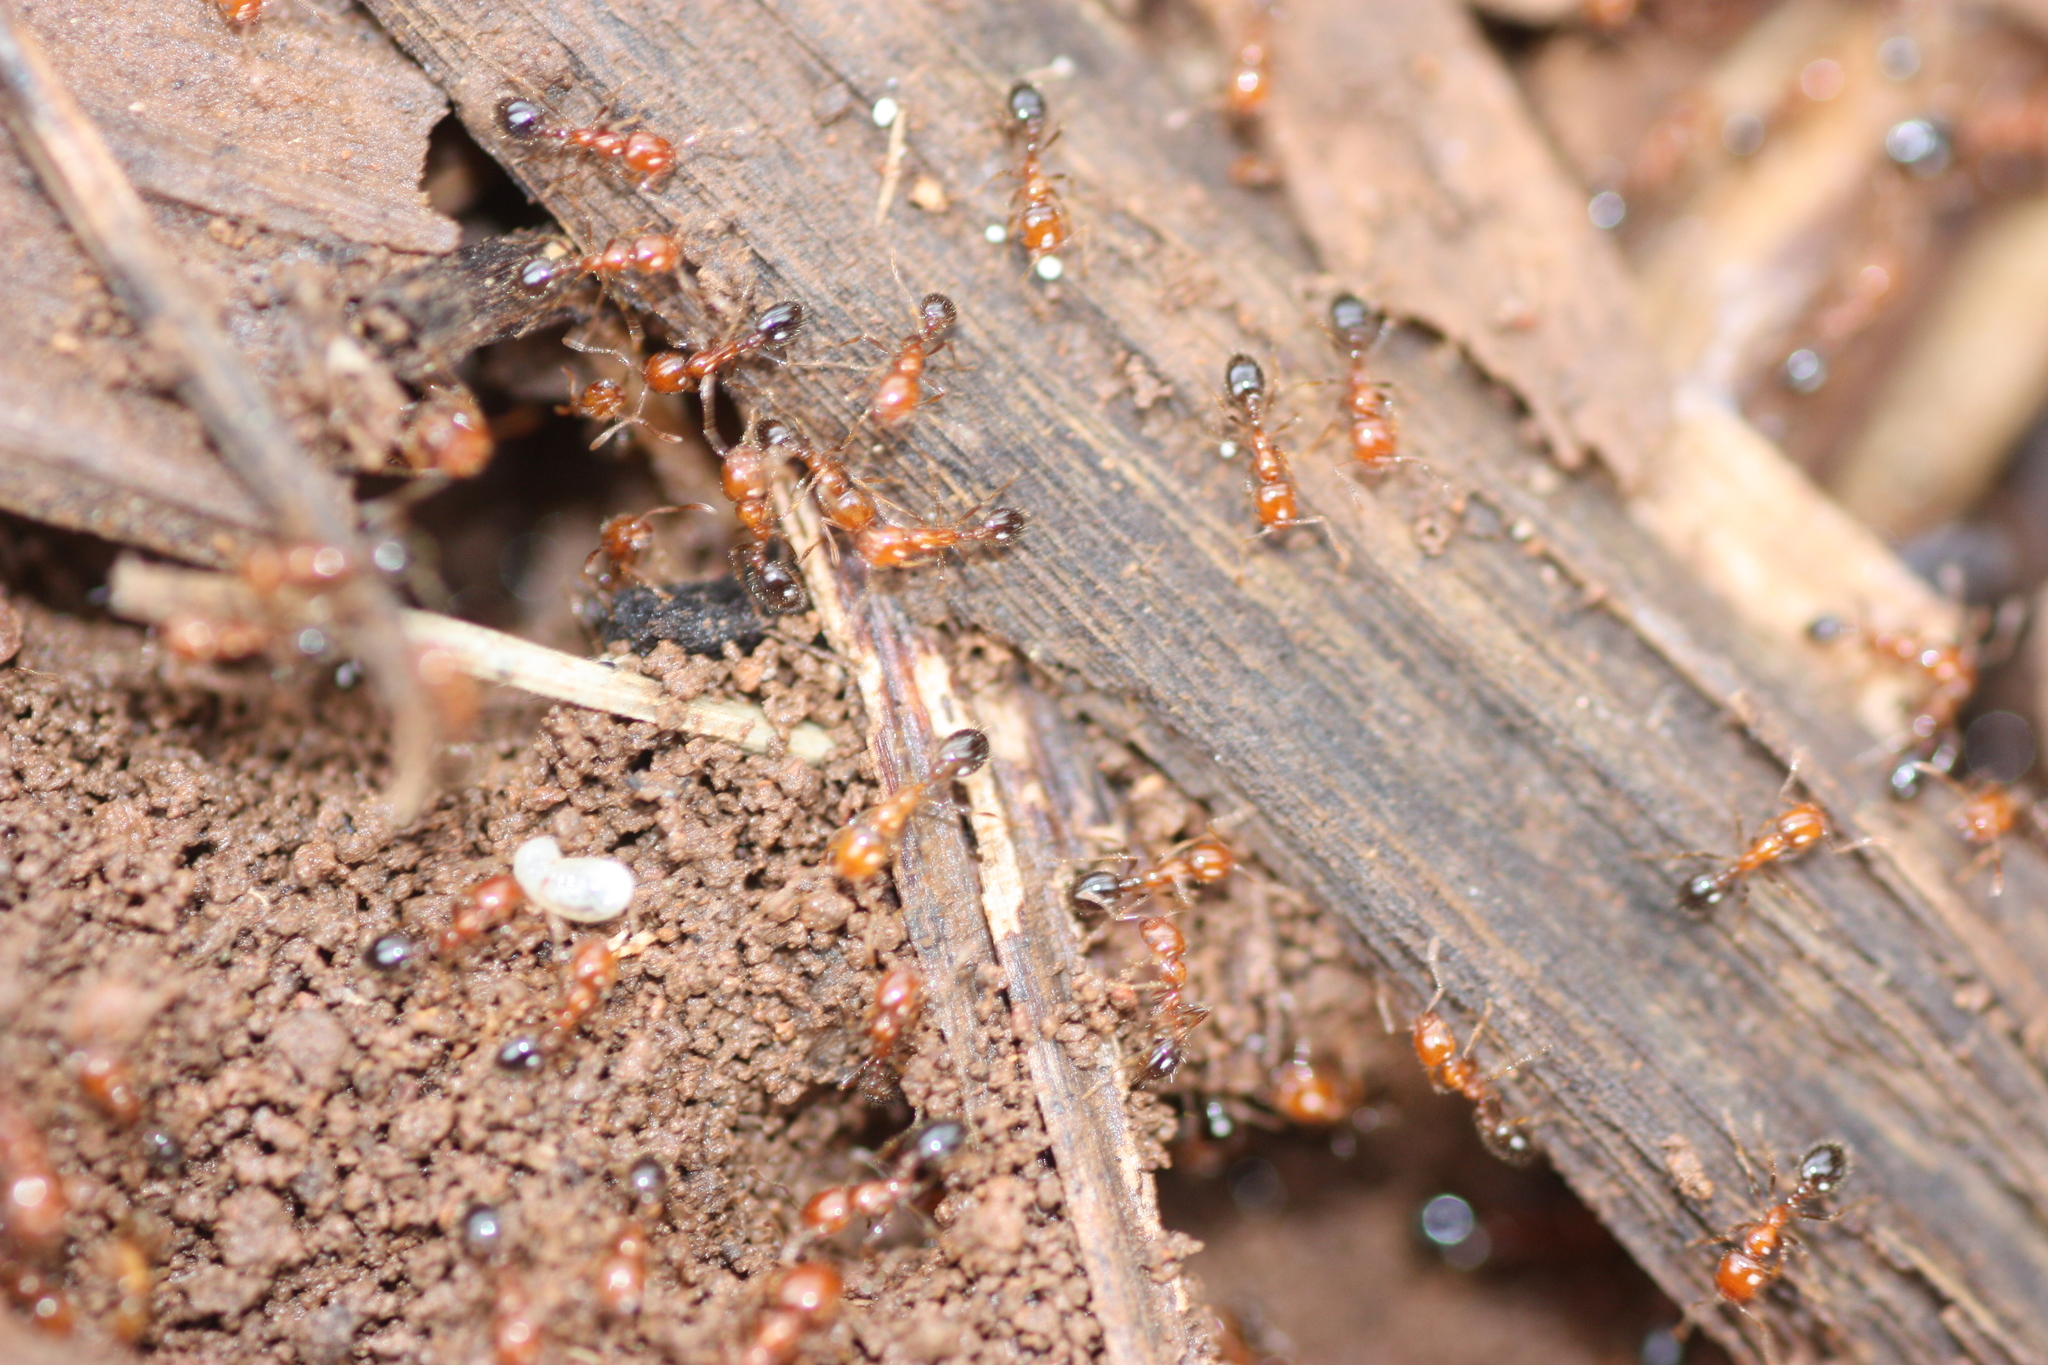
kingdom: Animalia
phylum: Arthropoda
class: Insecta
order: Hymenoptera
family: Formicidae
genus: Solenopsis
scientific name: Solenopsis xyloni
